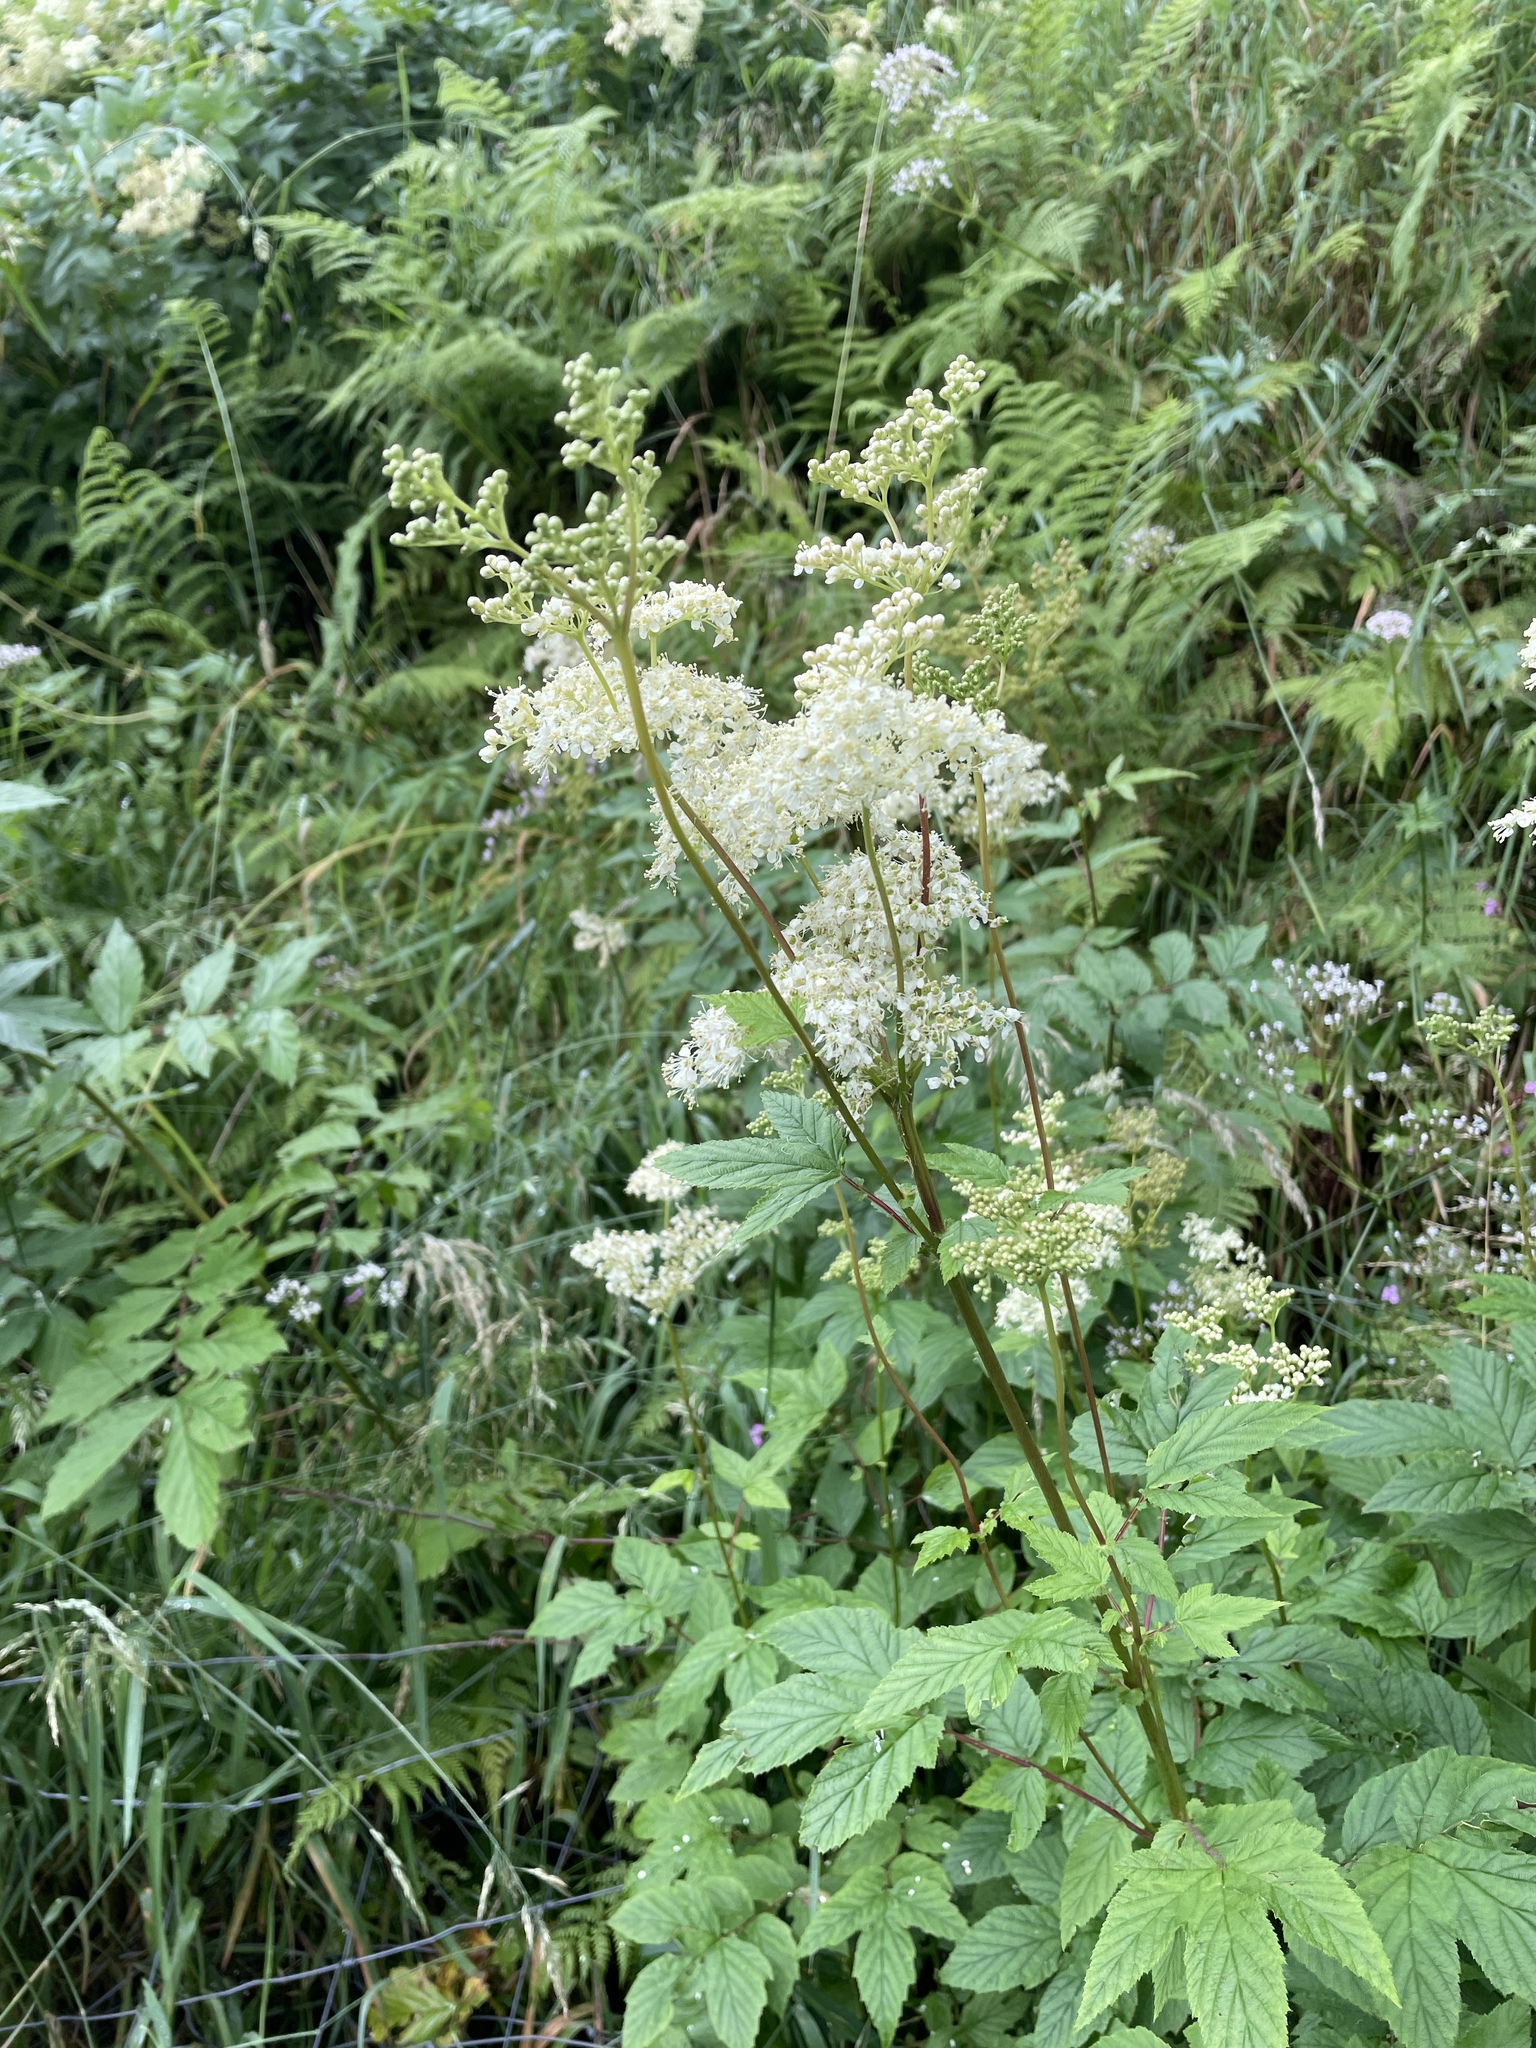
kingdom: Plantae
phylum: Tracheophyta
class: Magnoliopsida
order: Rosales
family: Rosaceae
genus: Filipendula
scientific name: Filipendula ulmaria
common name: Meadowsweet
